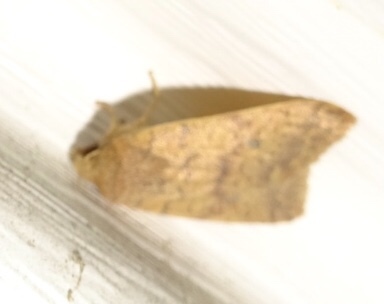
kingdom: Animalia
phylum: Arthropoda
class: Insecta
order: Lepidoptera
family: Noctuidae
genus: Agrochola
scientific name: Agrochola bicolorago
